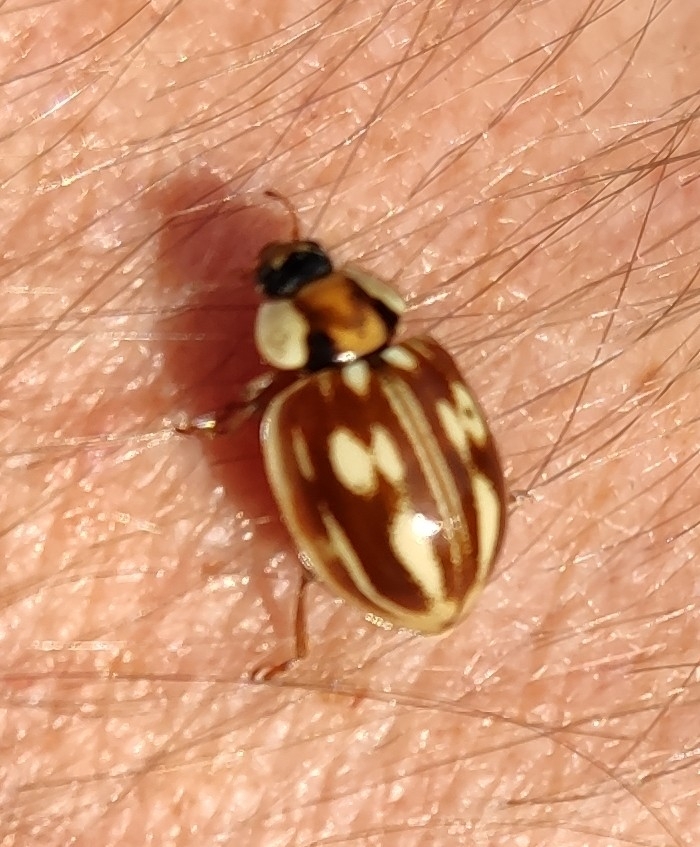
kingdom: Animalia
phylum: Arthropoda
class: Insecta
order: Coleoptera
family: Coccinellidae
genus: Myzia
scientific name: Myzia oblongoguttata
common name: Striped ladybird
